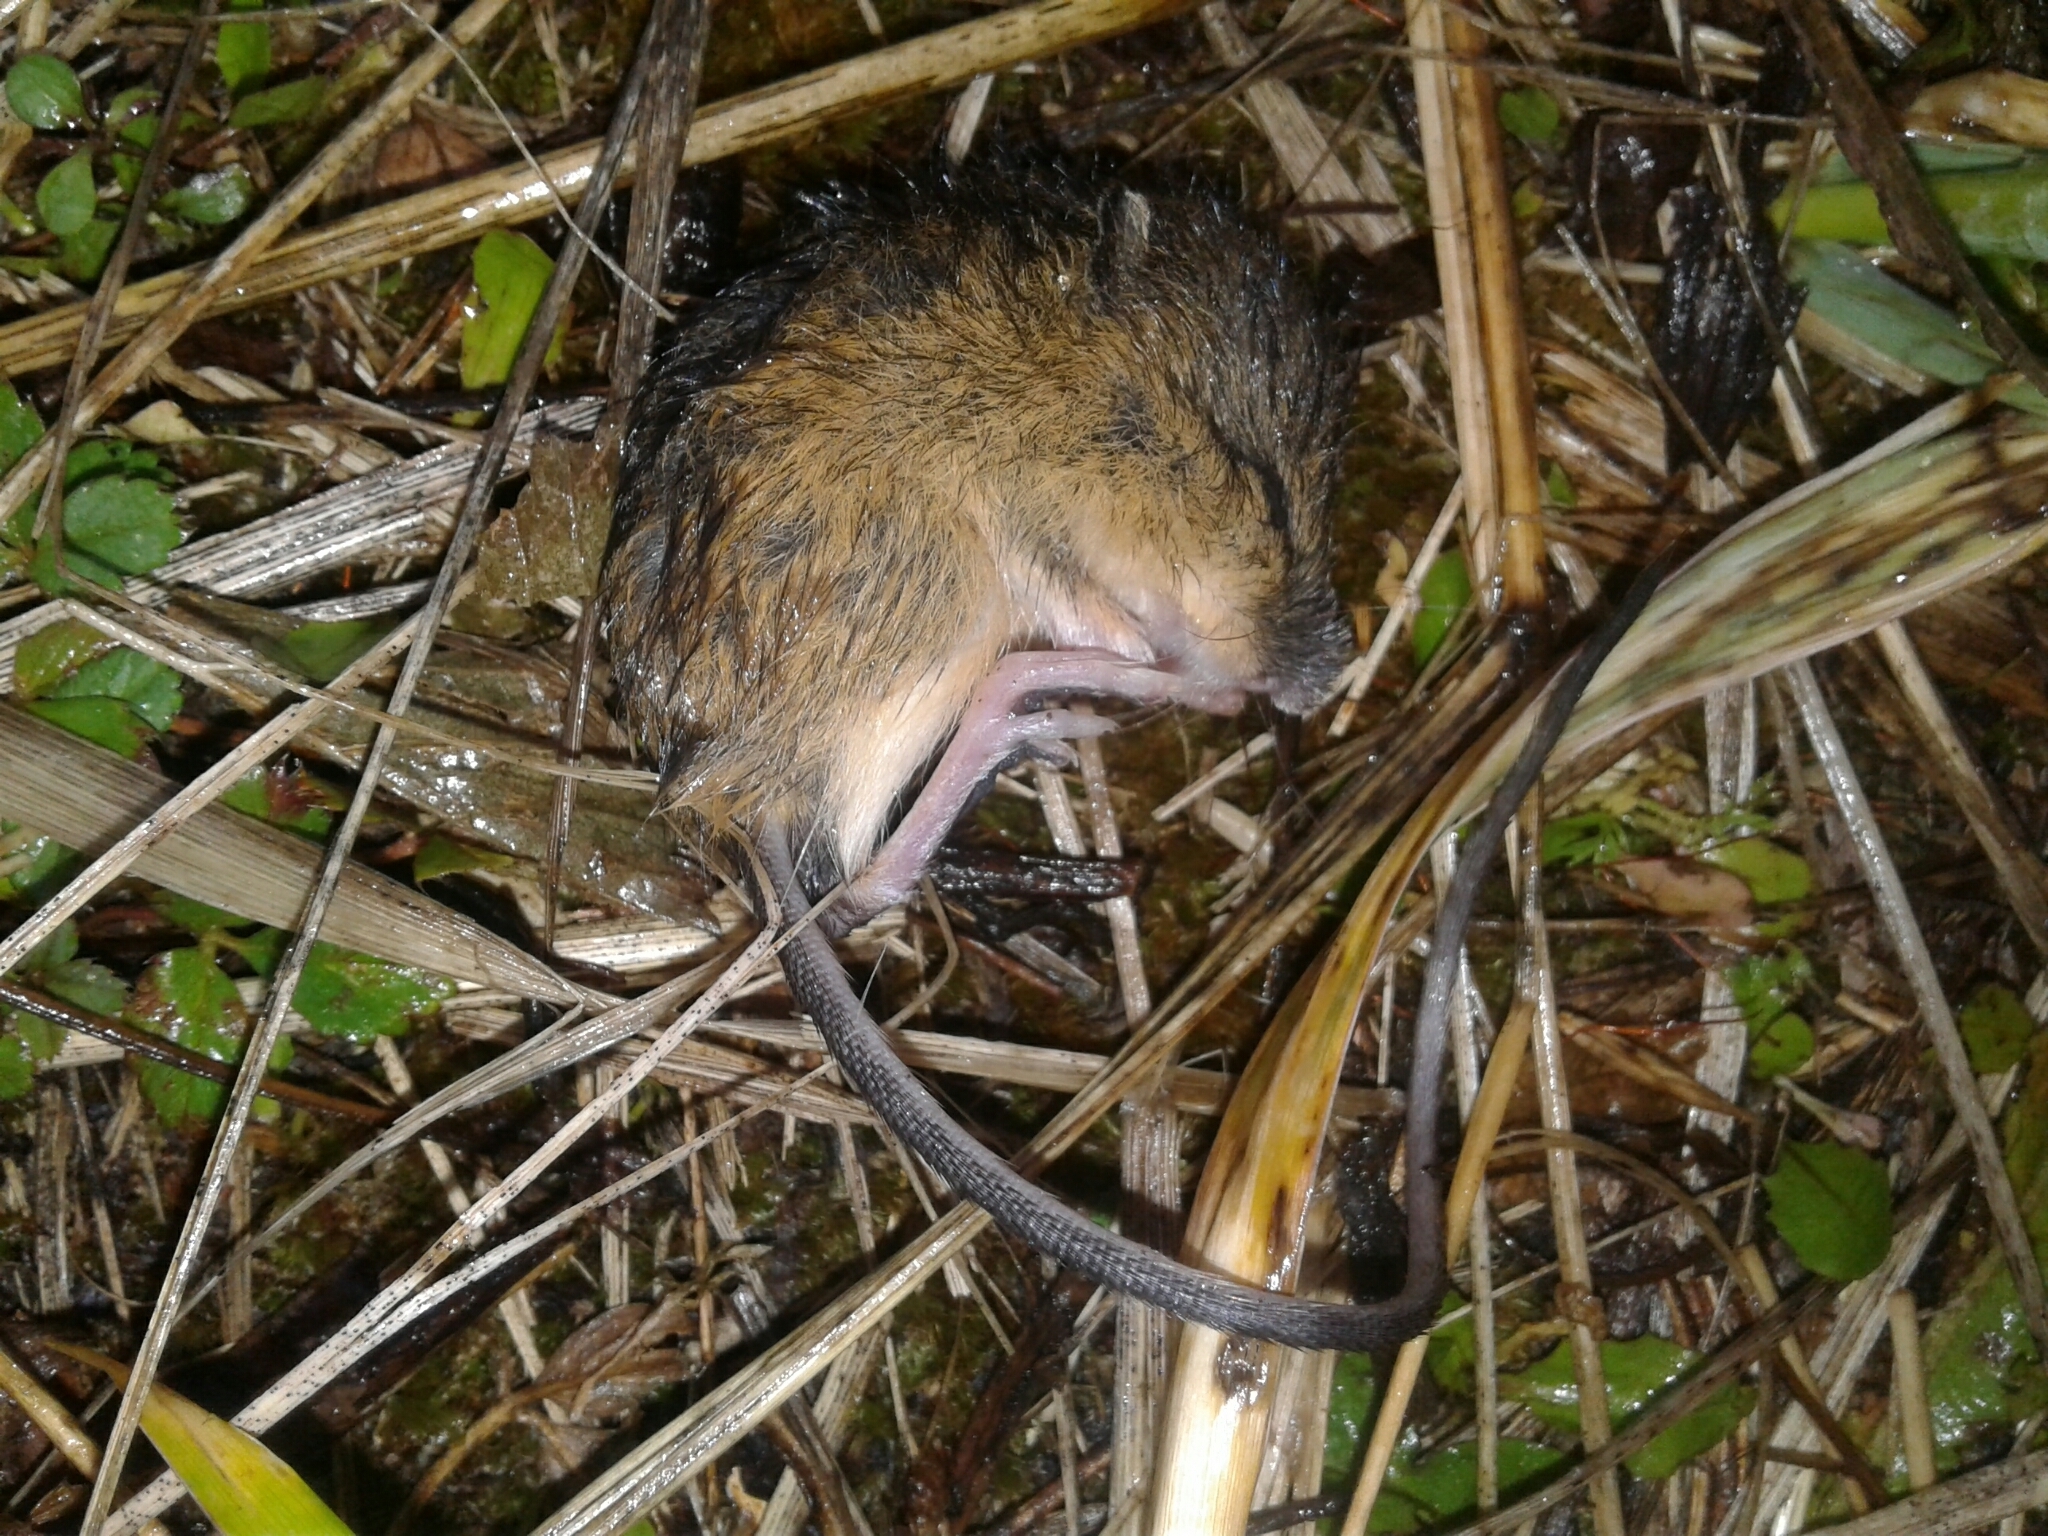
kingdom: Animalia
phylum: Chordata
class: Mammalia
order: Rodentia
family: Dipodidae
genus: Zapus
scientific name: Zapus hudsonius
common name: Meadow jumping mouse
